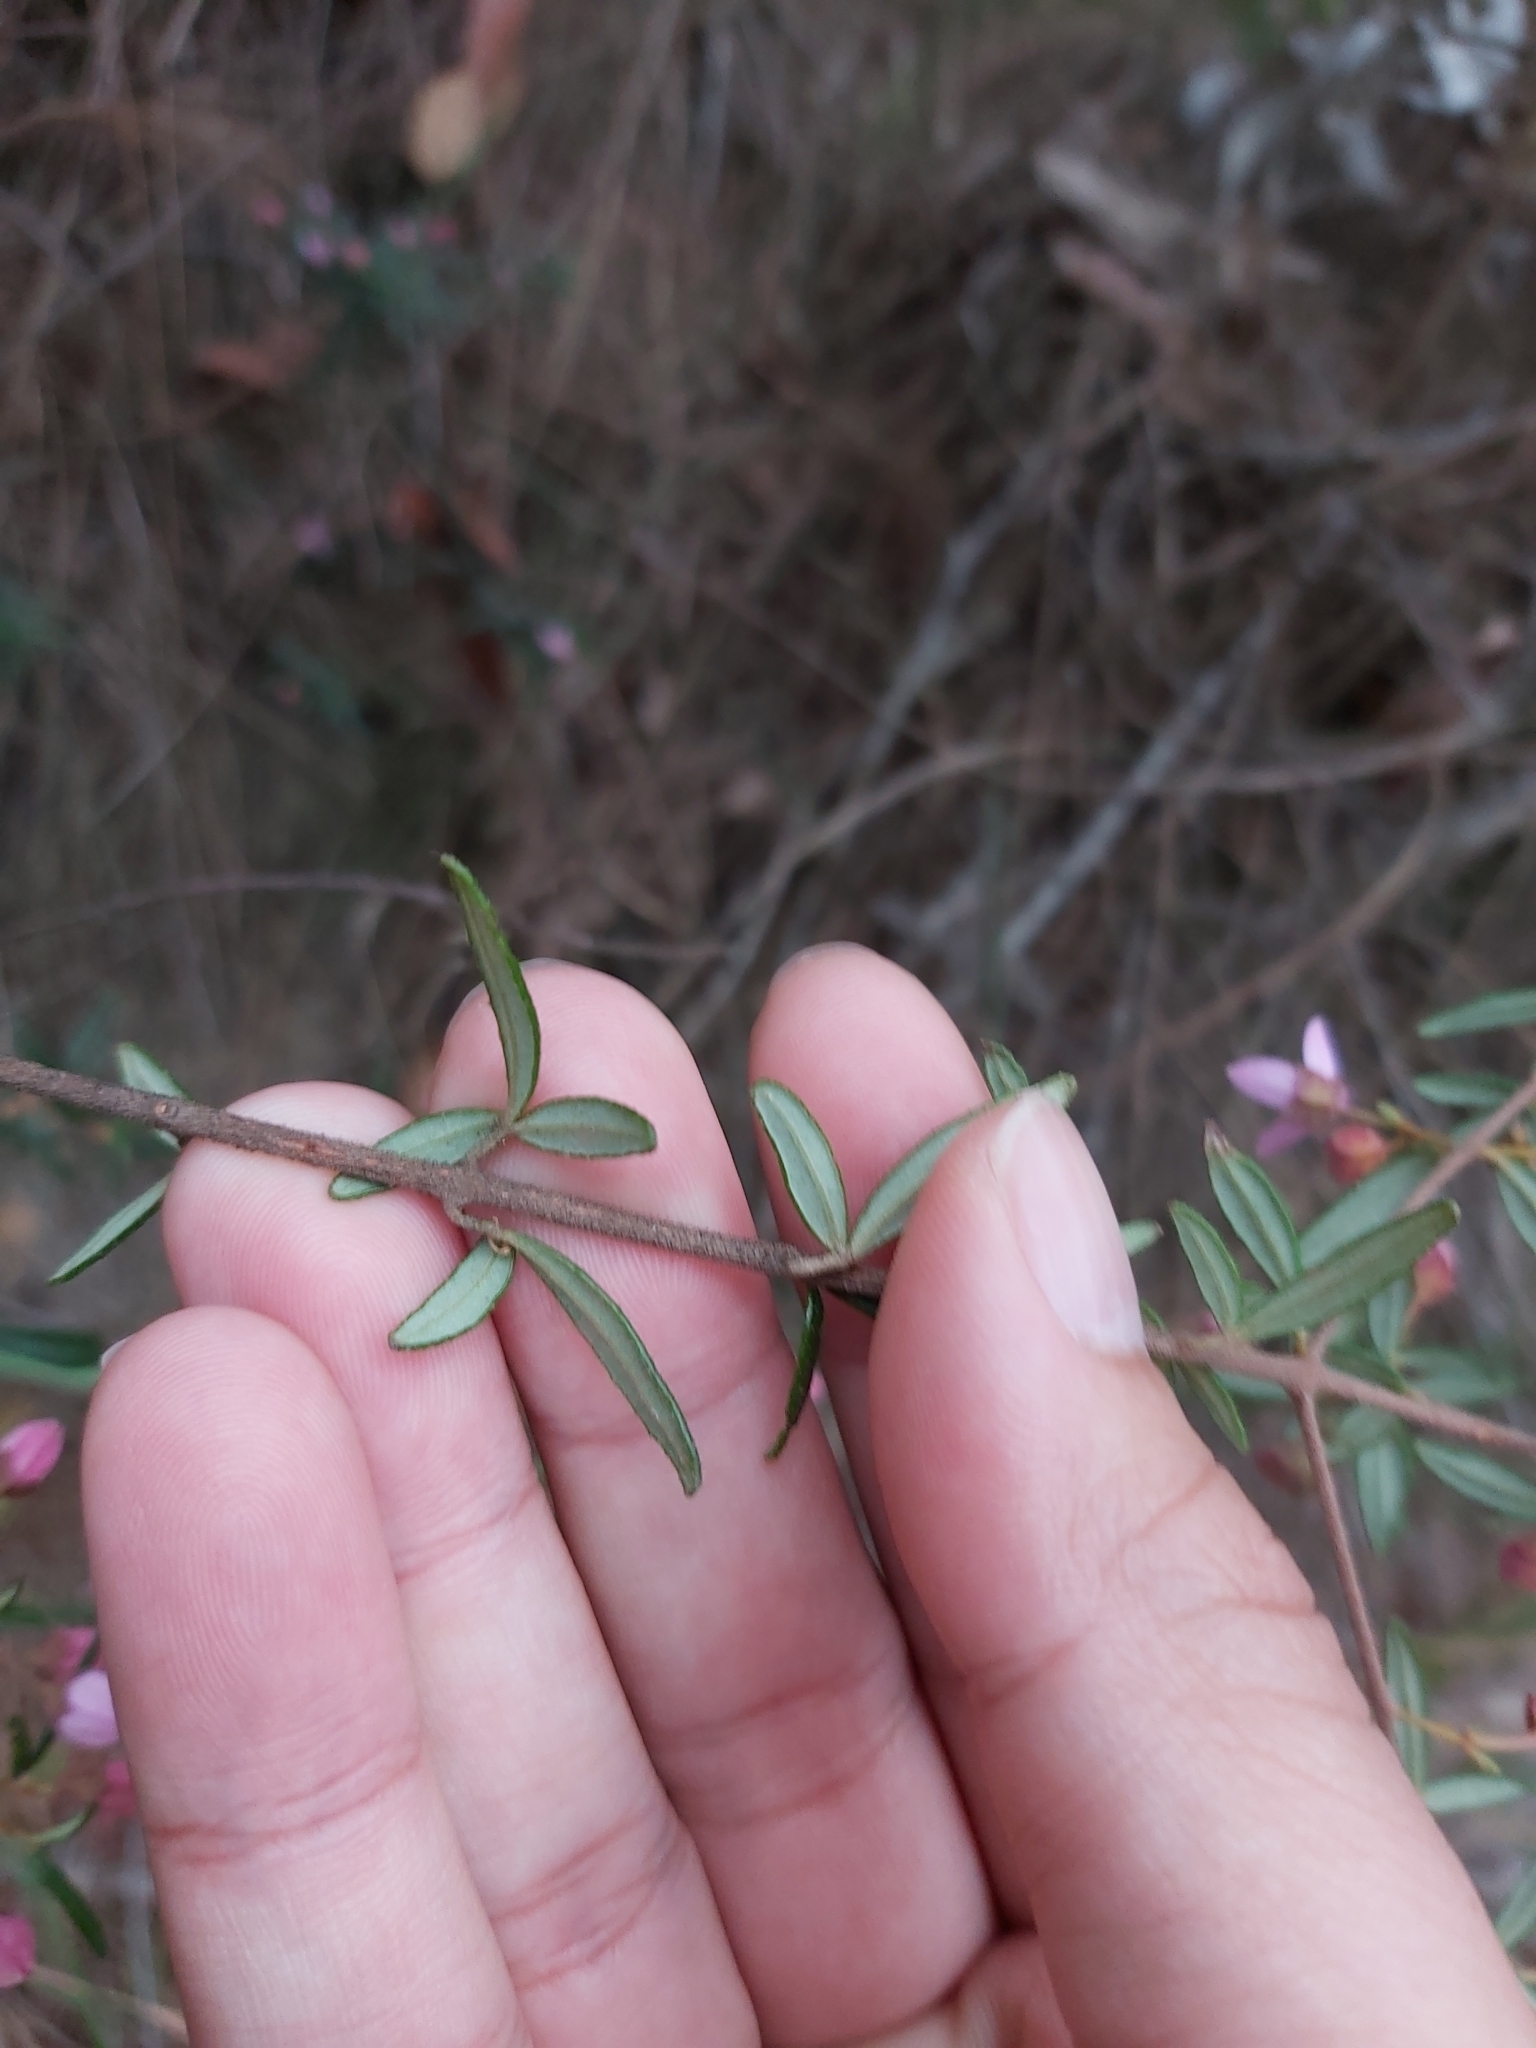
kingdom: Plantae
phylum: Tracheophyta
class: Magnoliopsida
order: Sapindales
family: Rutaceae
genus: Boronia
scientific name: Boronia ledifolia
